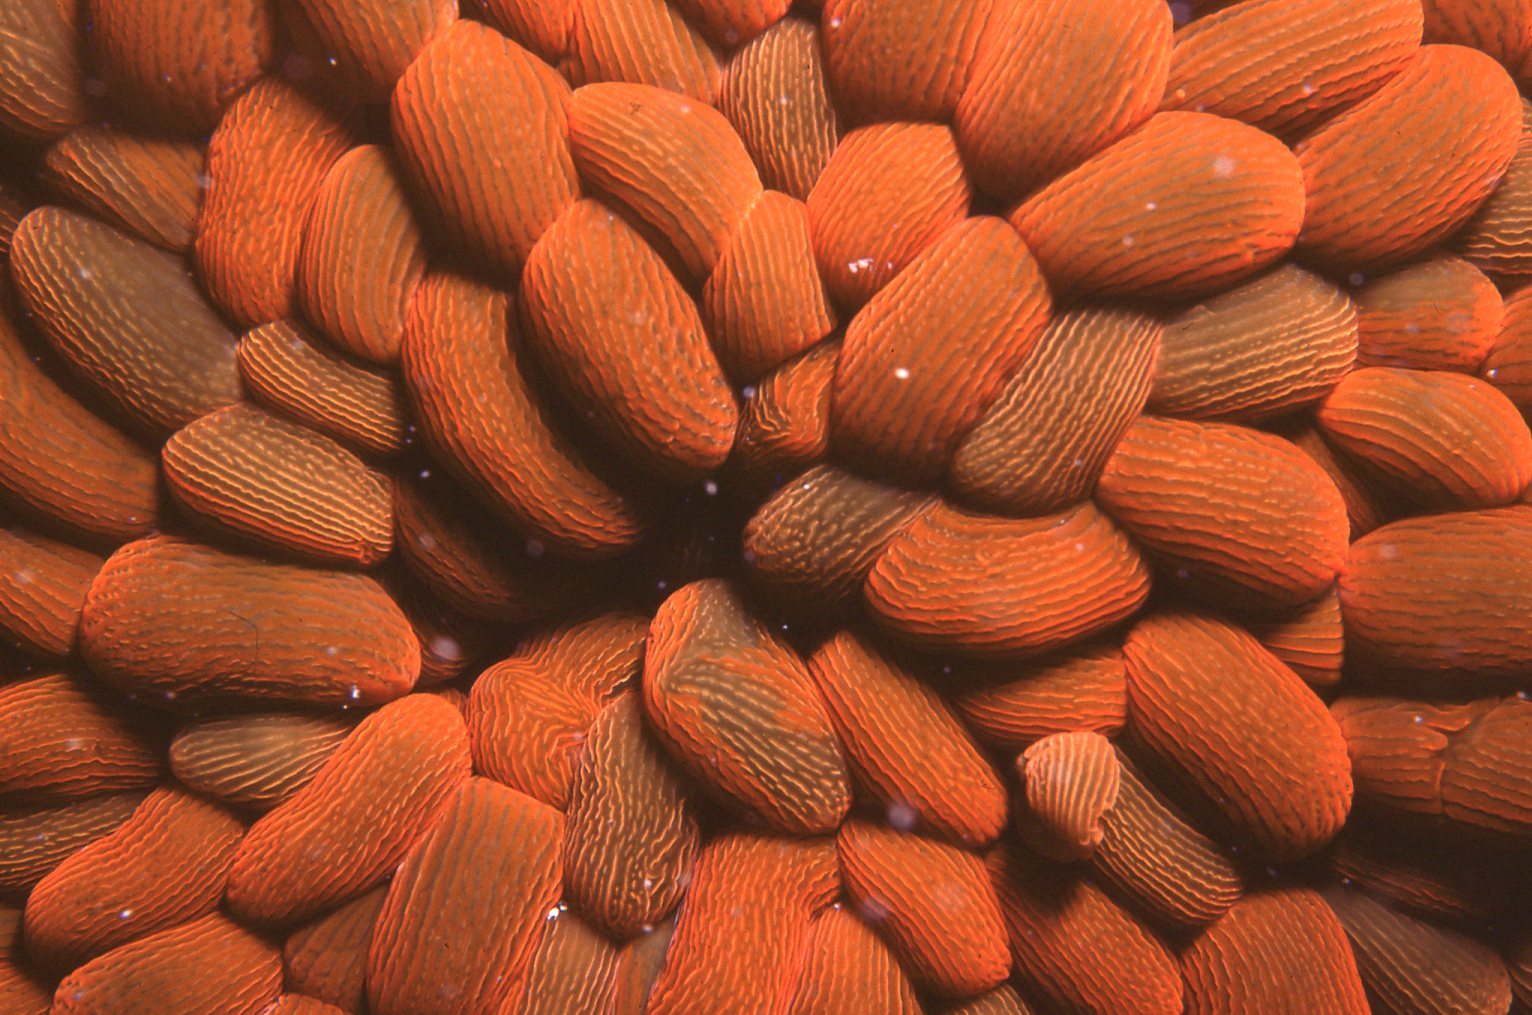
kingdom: Animalia
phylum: Cnidaria
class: Anthozoa
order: Actiniaria
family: Actiniidae
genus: Phlyctenactis
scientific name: Phlyctenactis tuberculosa
